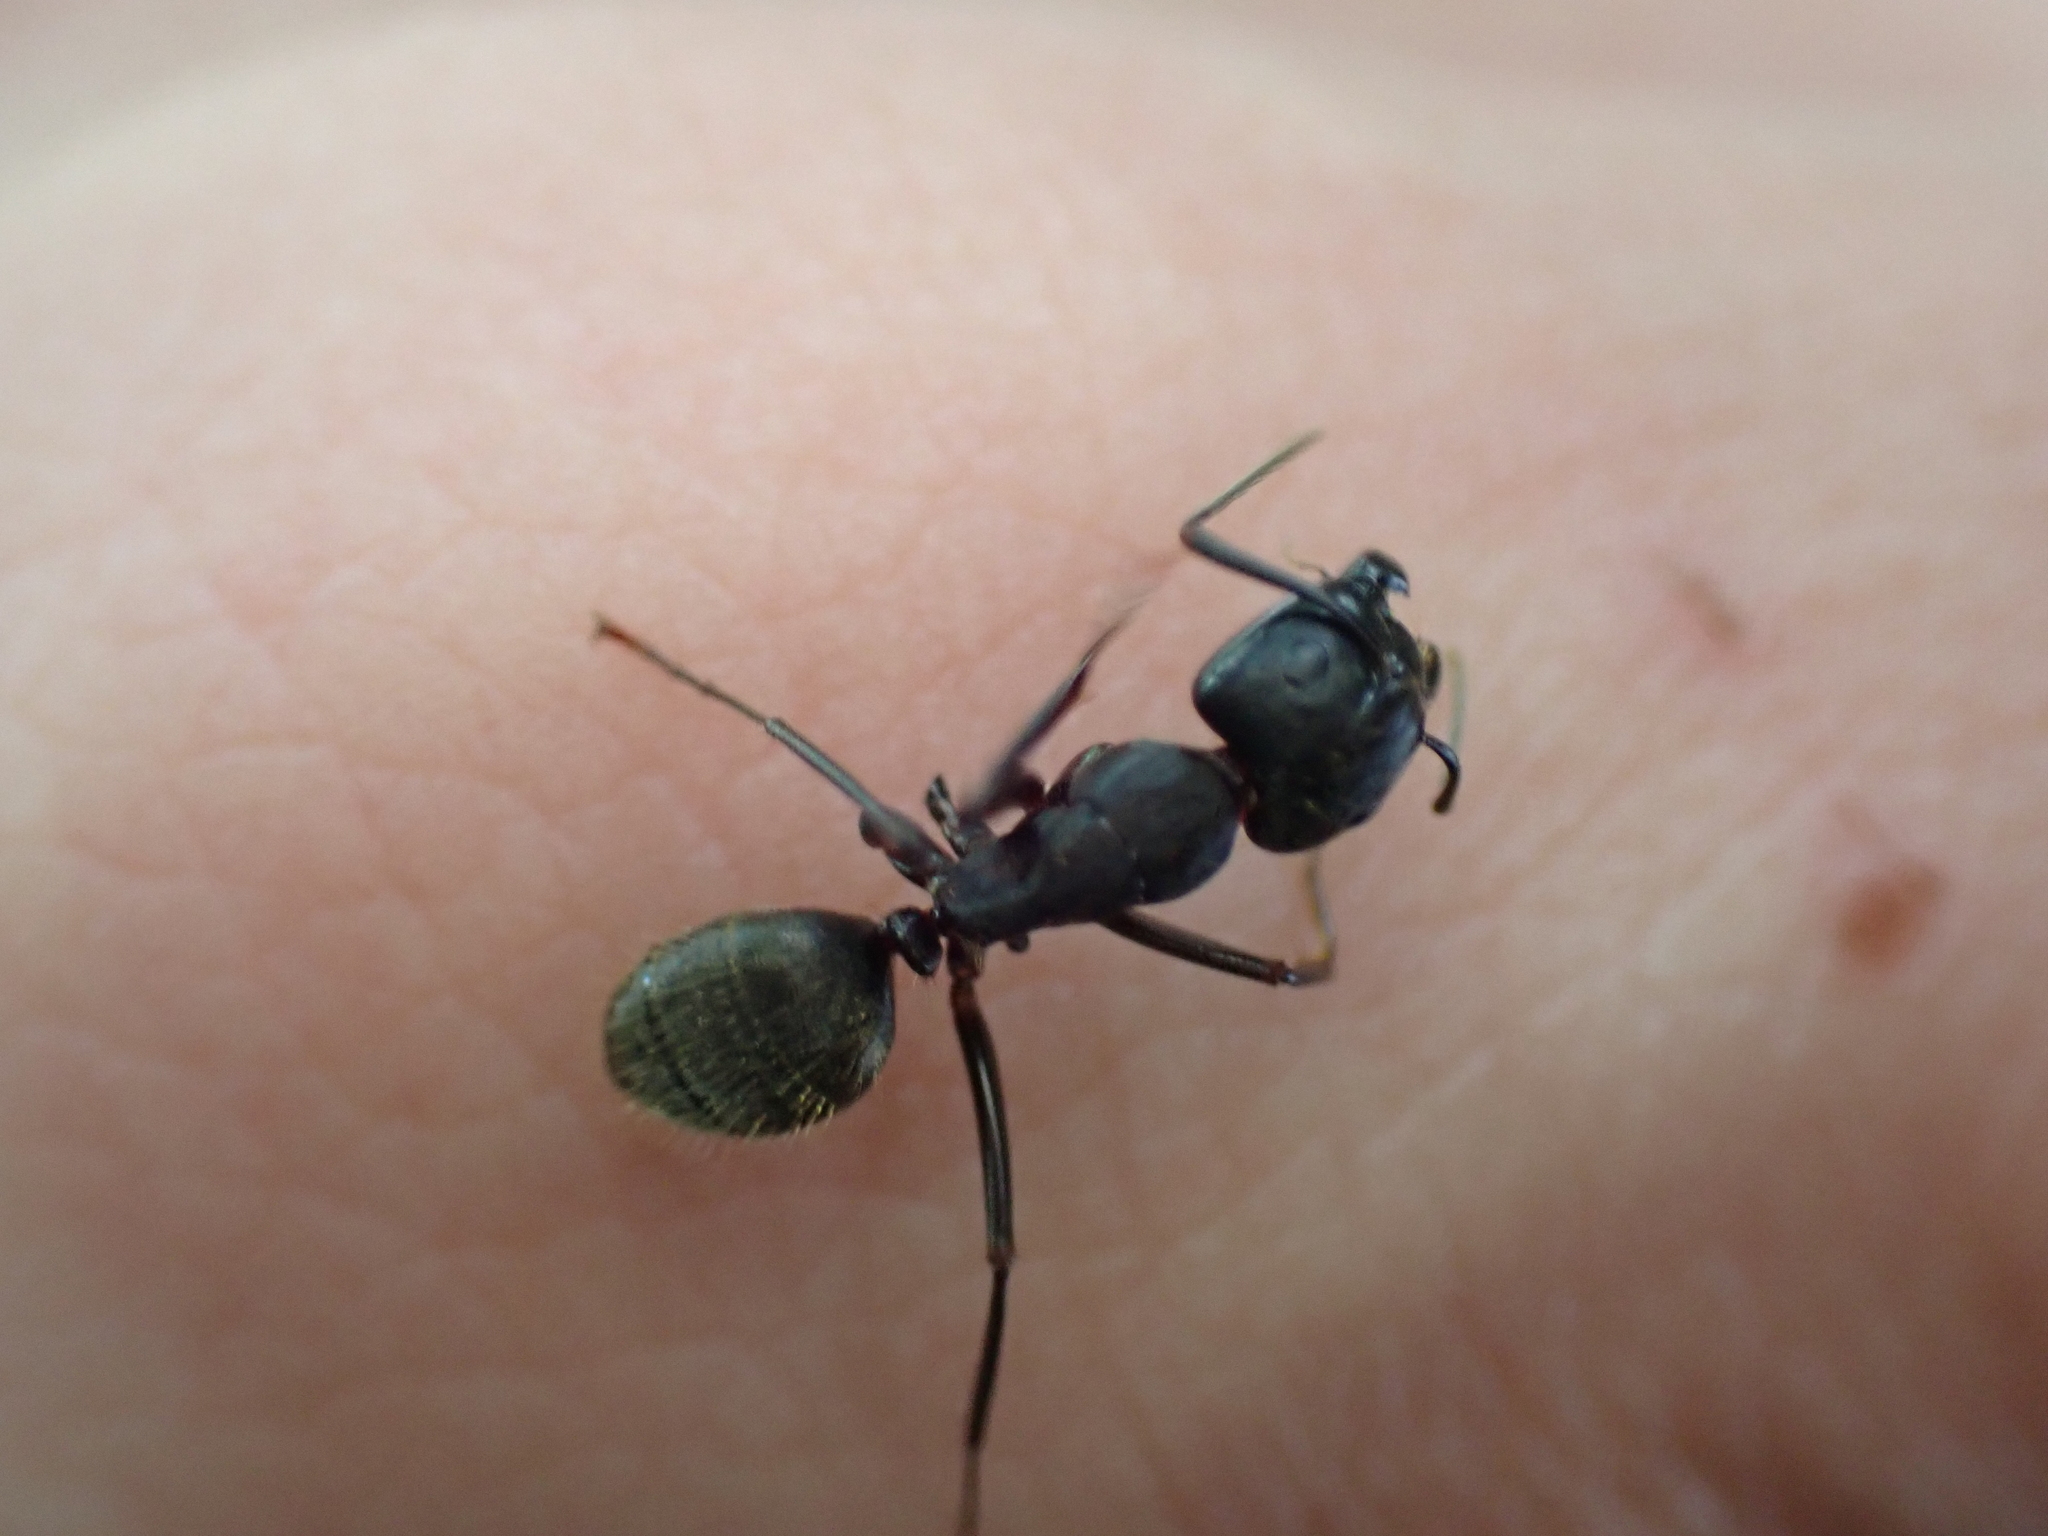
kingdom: Animalia
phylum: Arthropoda
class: Insecta
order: Hymenoptera
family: Formicidae
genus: Camponotus
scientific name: Camponotus pennsylvanicus
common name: Black carpenter ant
